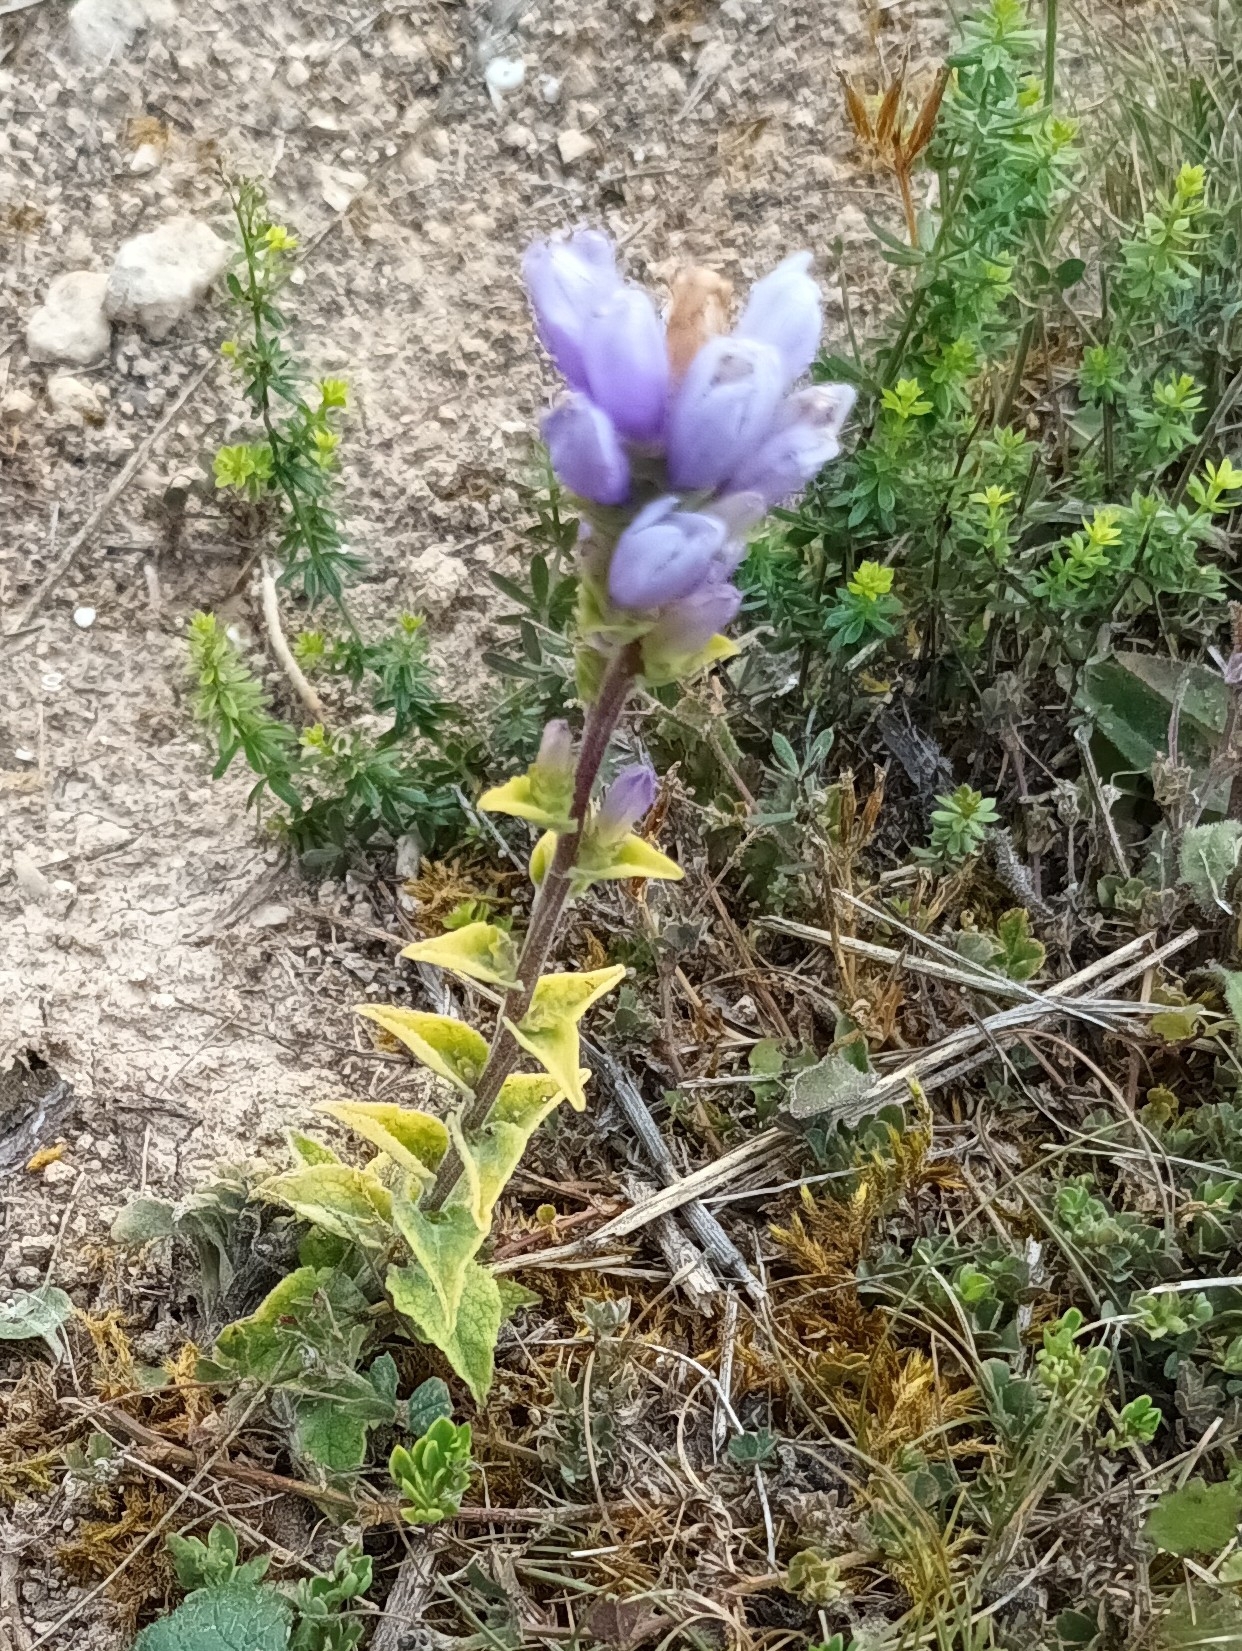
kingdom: Plantae
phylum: Tracheophyta
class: Magnoliopsida
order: Asterales
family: Campanulaceae
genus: Campanula
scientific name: Campanula glomerata
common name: Clustered bellflower
